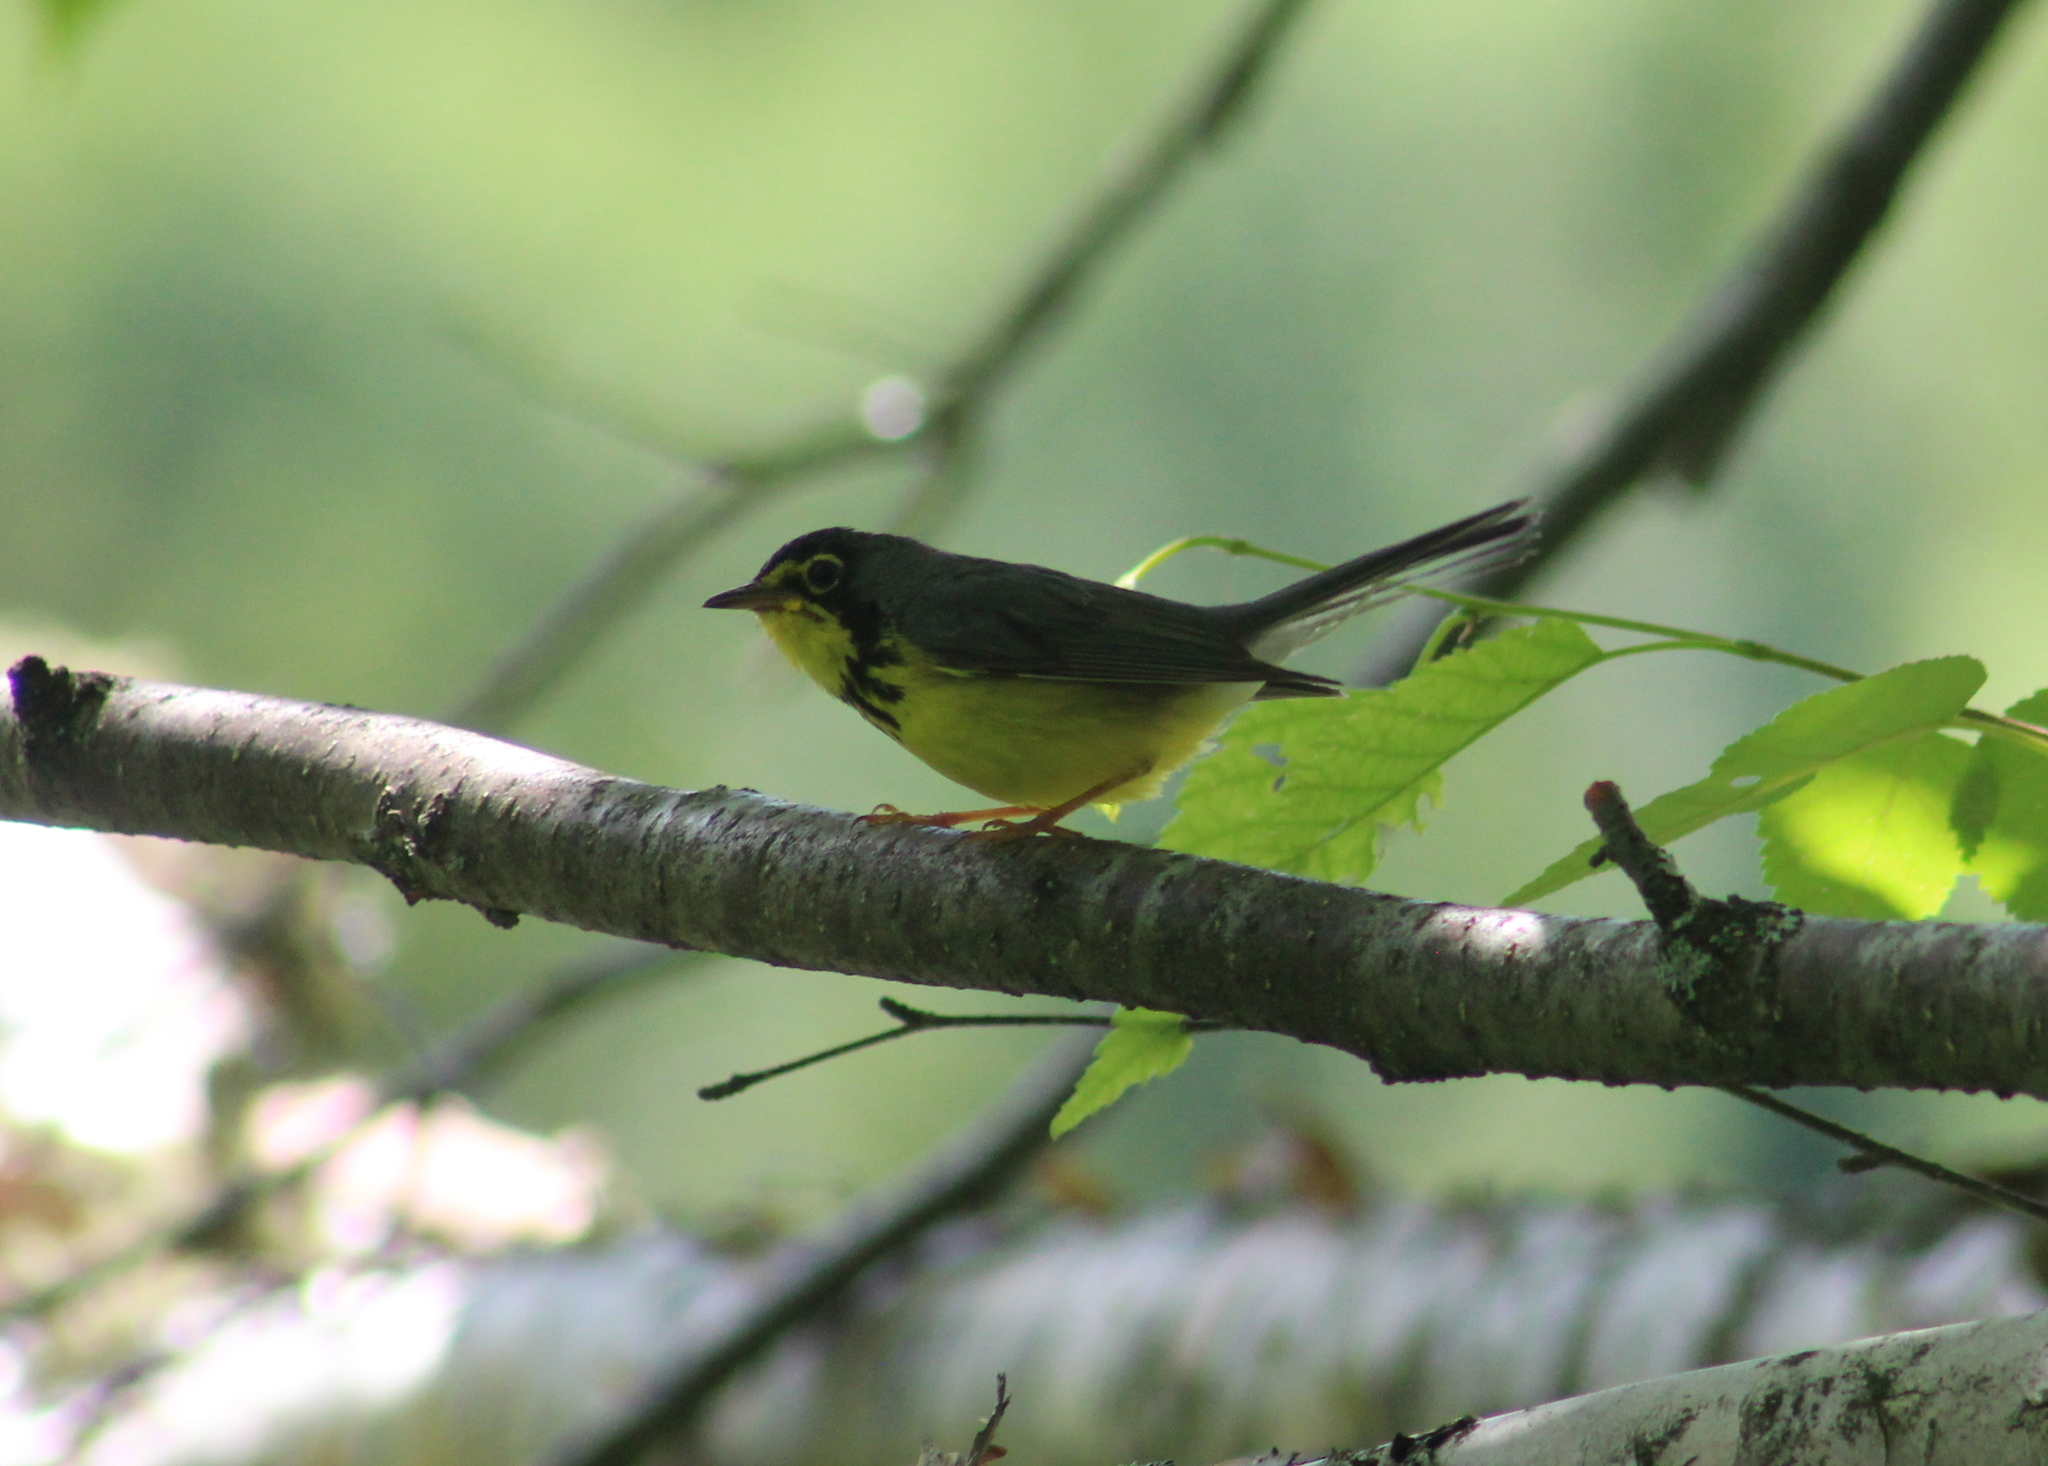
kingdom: Animalia
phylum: Chordata
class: Aves
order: Passeriformes
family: Parulidae
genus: Cardellina
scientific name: Cardellina canadensis
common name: Canada warbler
